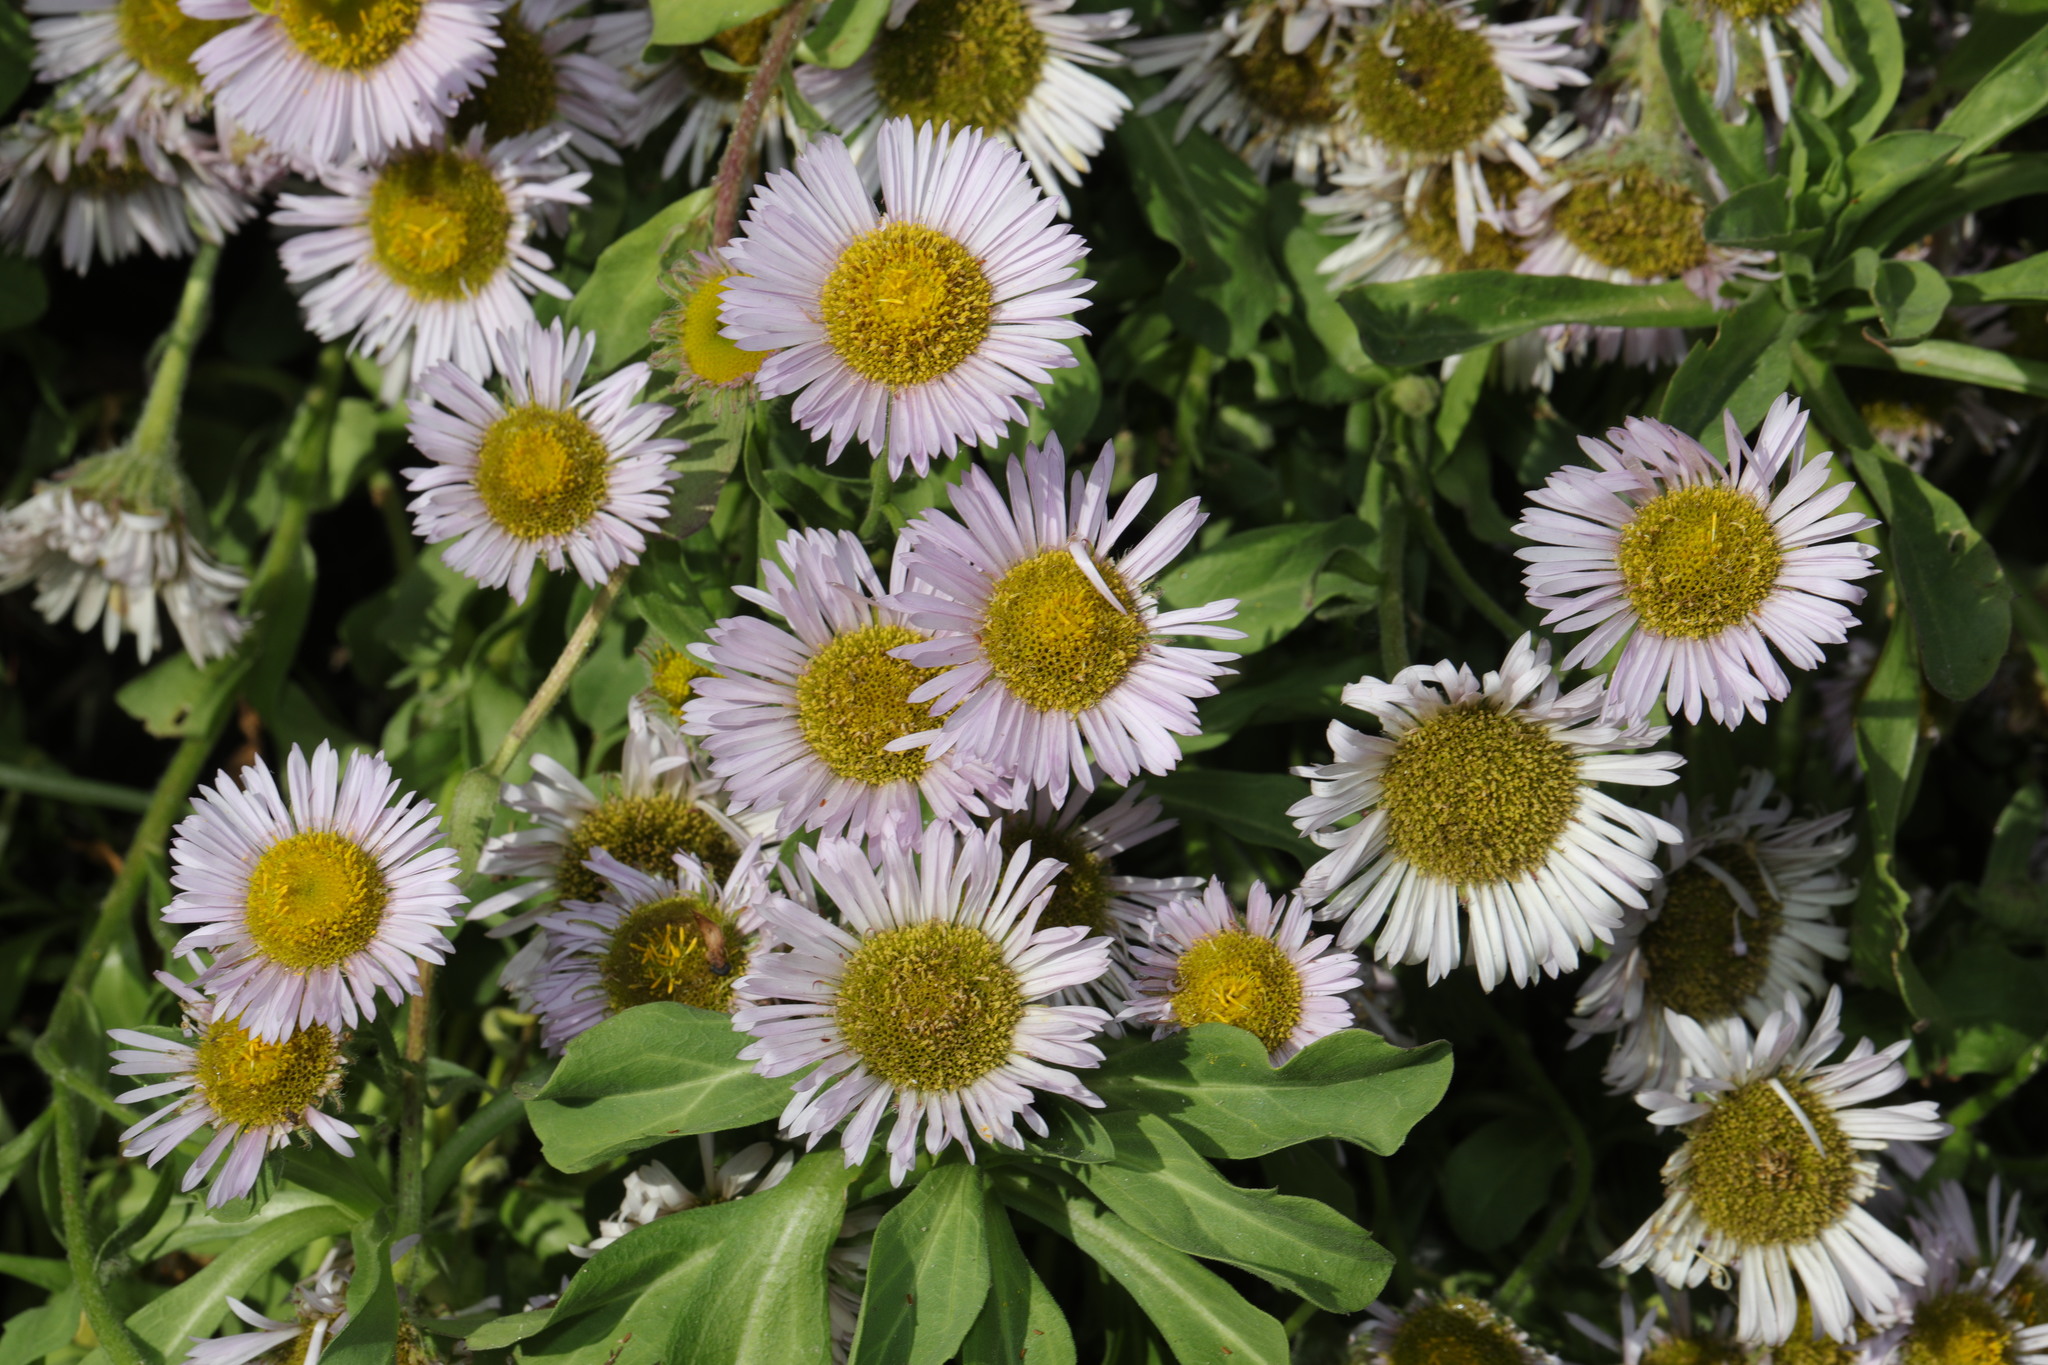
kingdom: Plantae
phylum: Tracheophyta
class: Magnoliopsida
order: Asterales
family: Asteraceae
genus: Erigeron
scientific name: Erigeron glaucus
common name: Seaside daisy
